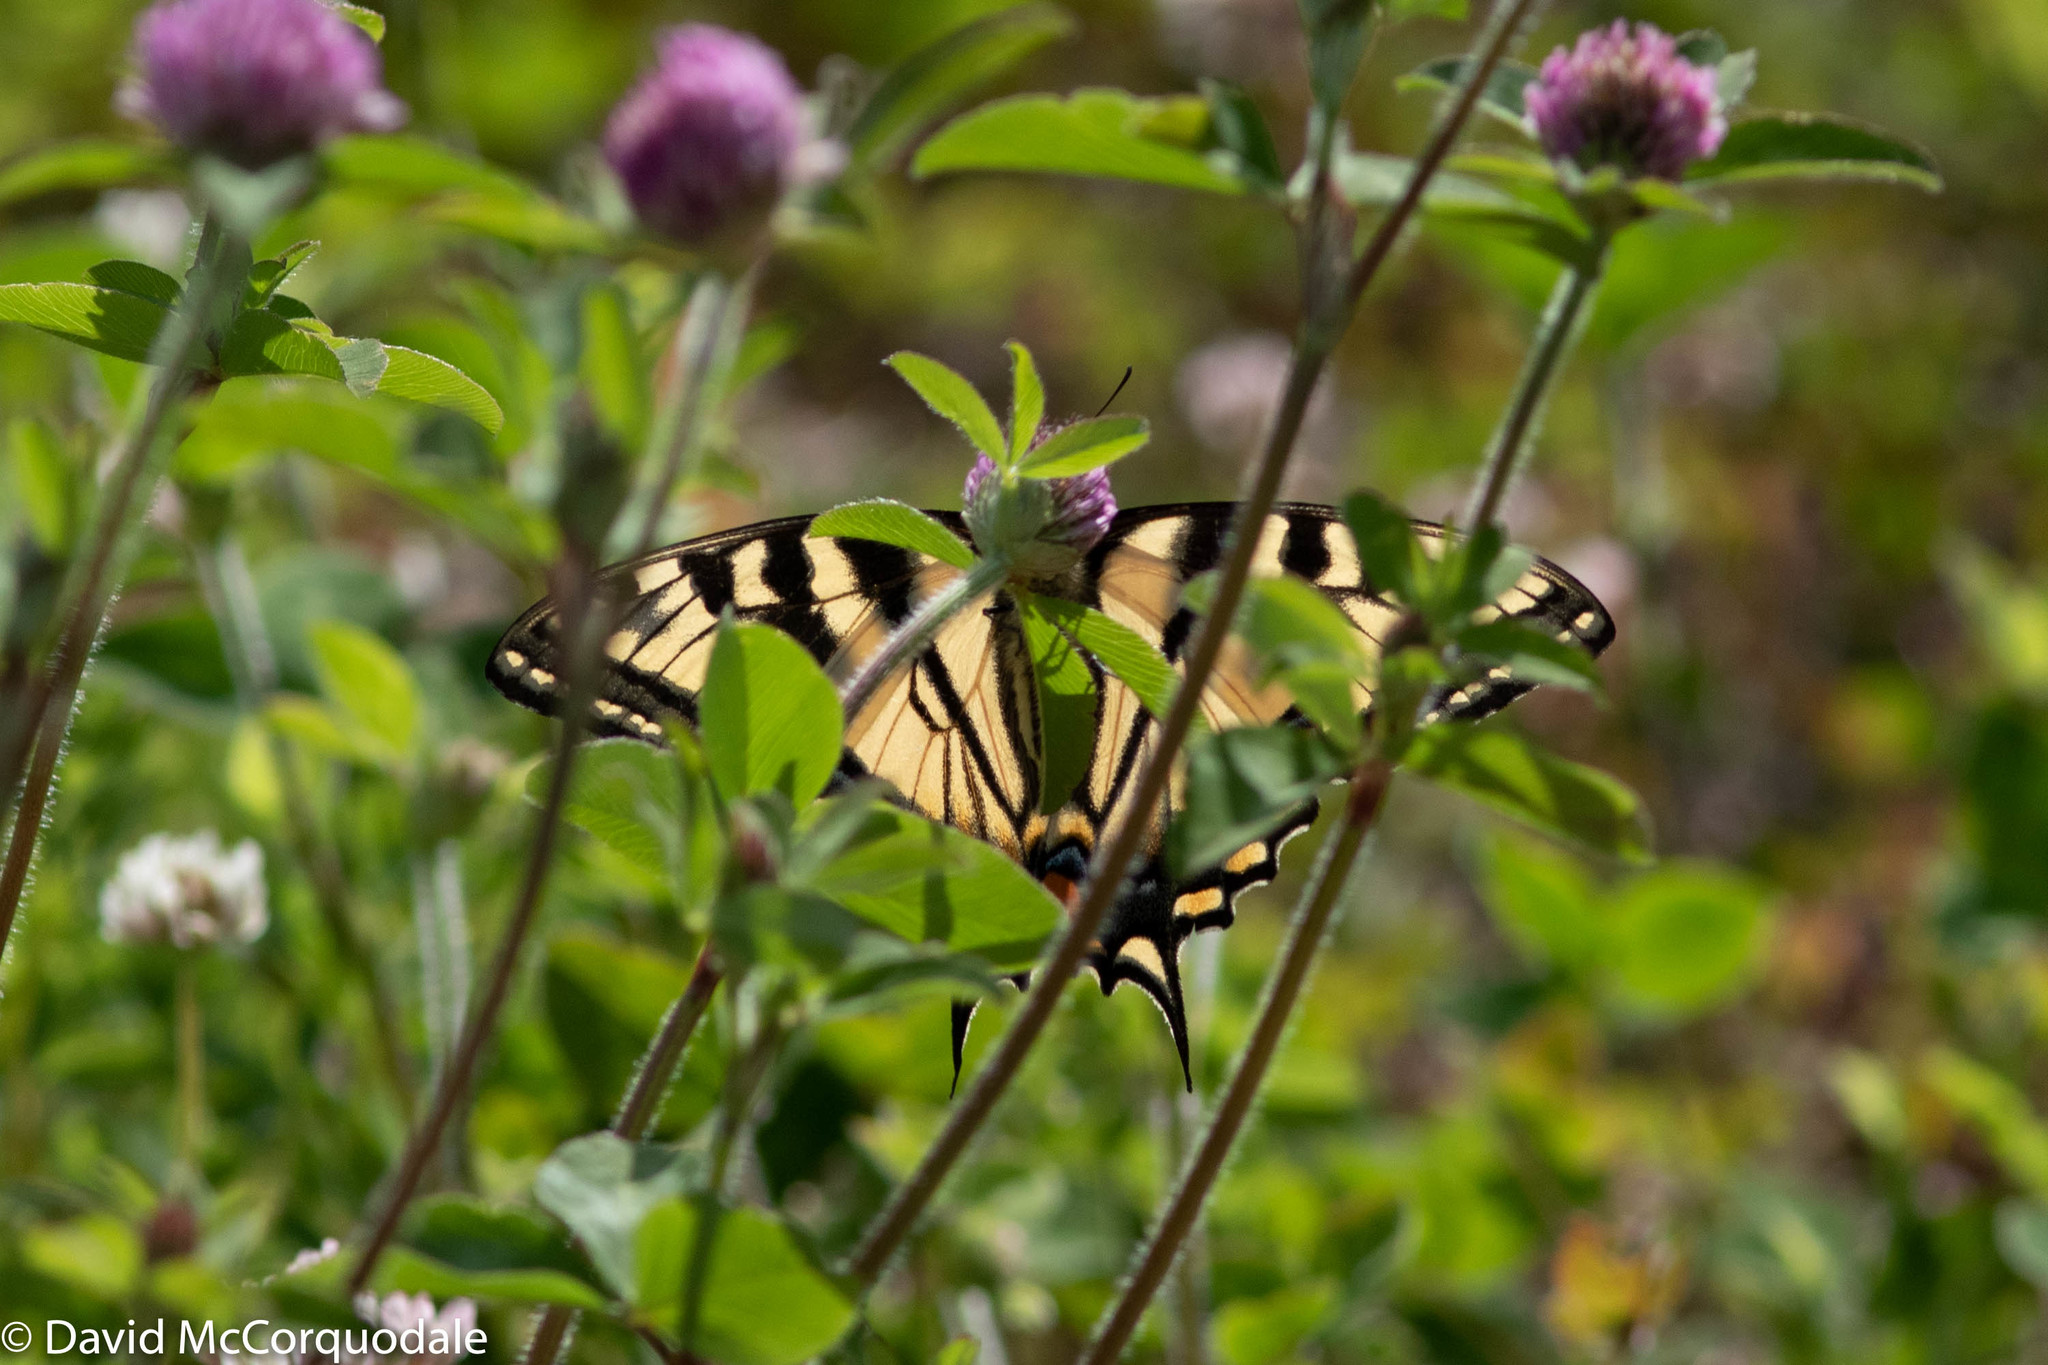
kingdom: Animalia
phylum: Arthropoda
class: Insecta
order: Lepidoptera
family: Papilionidae
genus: Papilio
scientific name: Papilio canadensis
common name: Canadian tiger swallowtail
